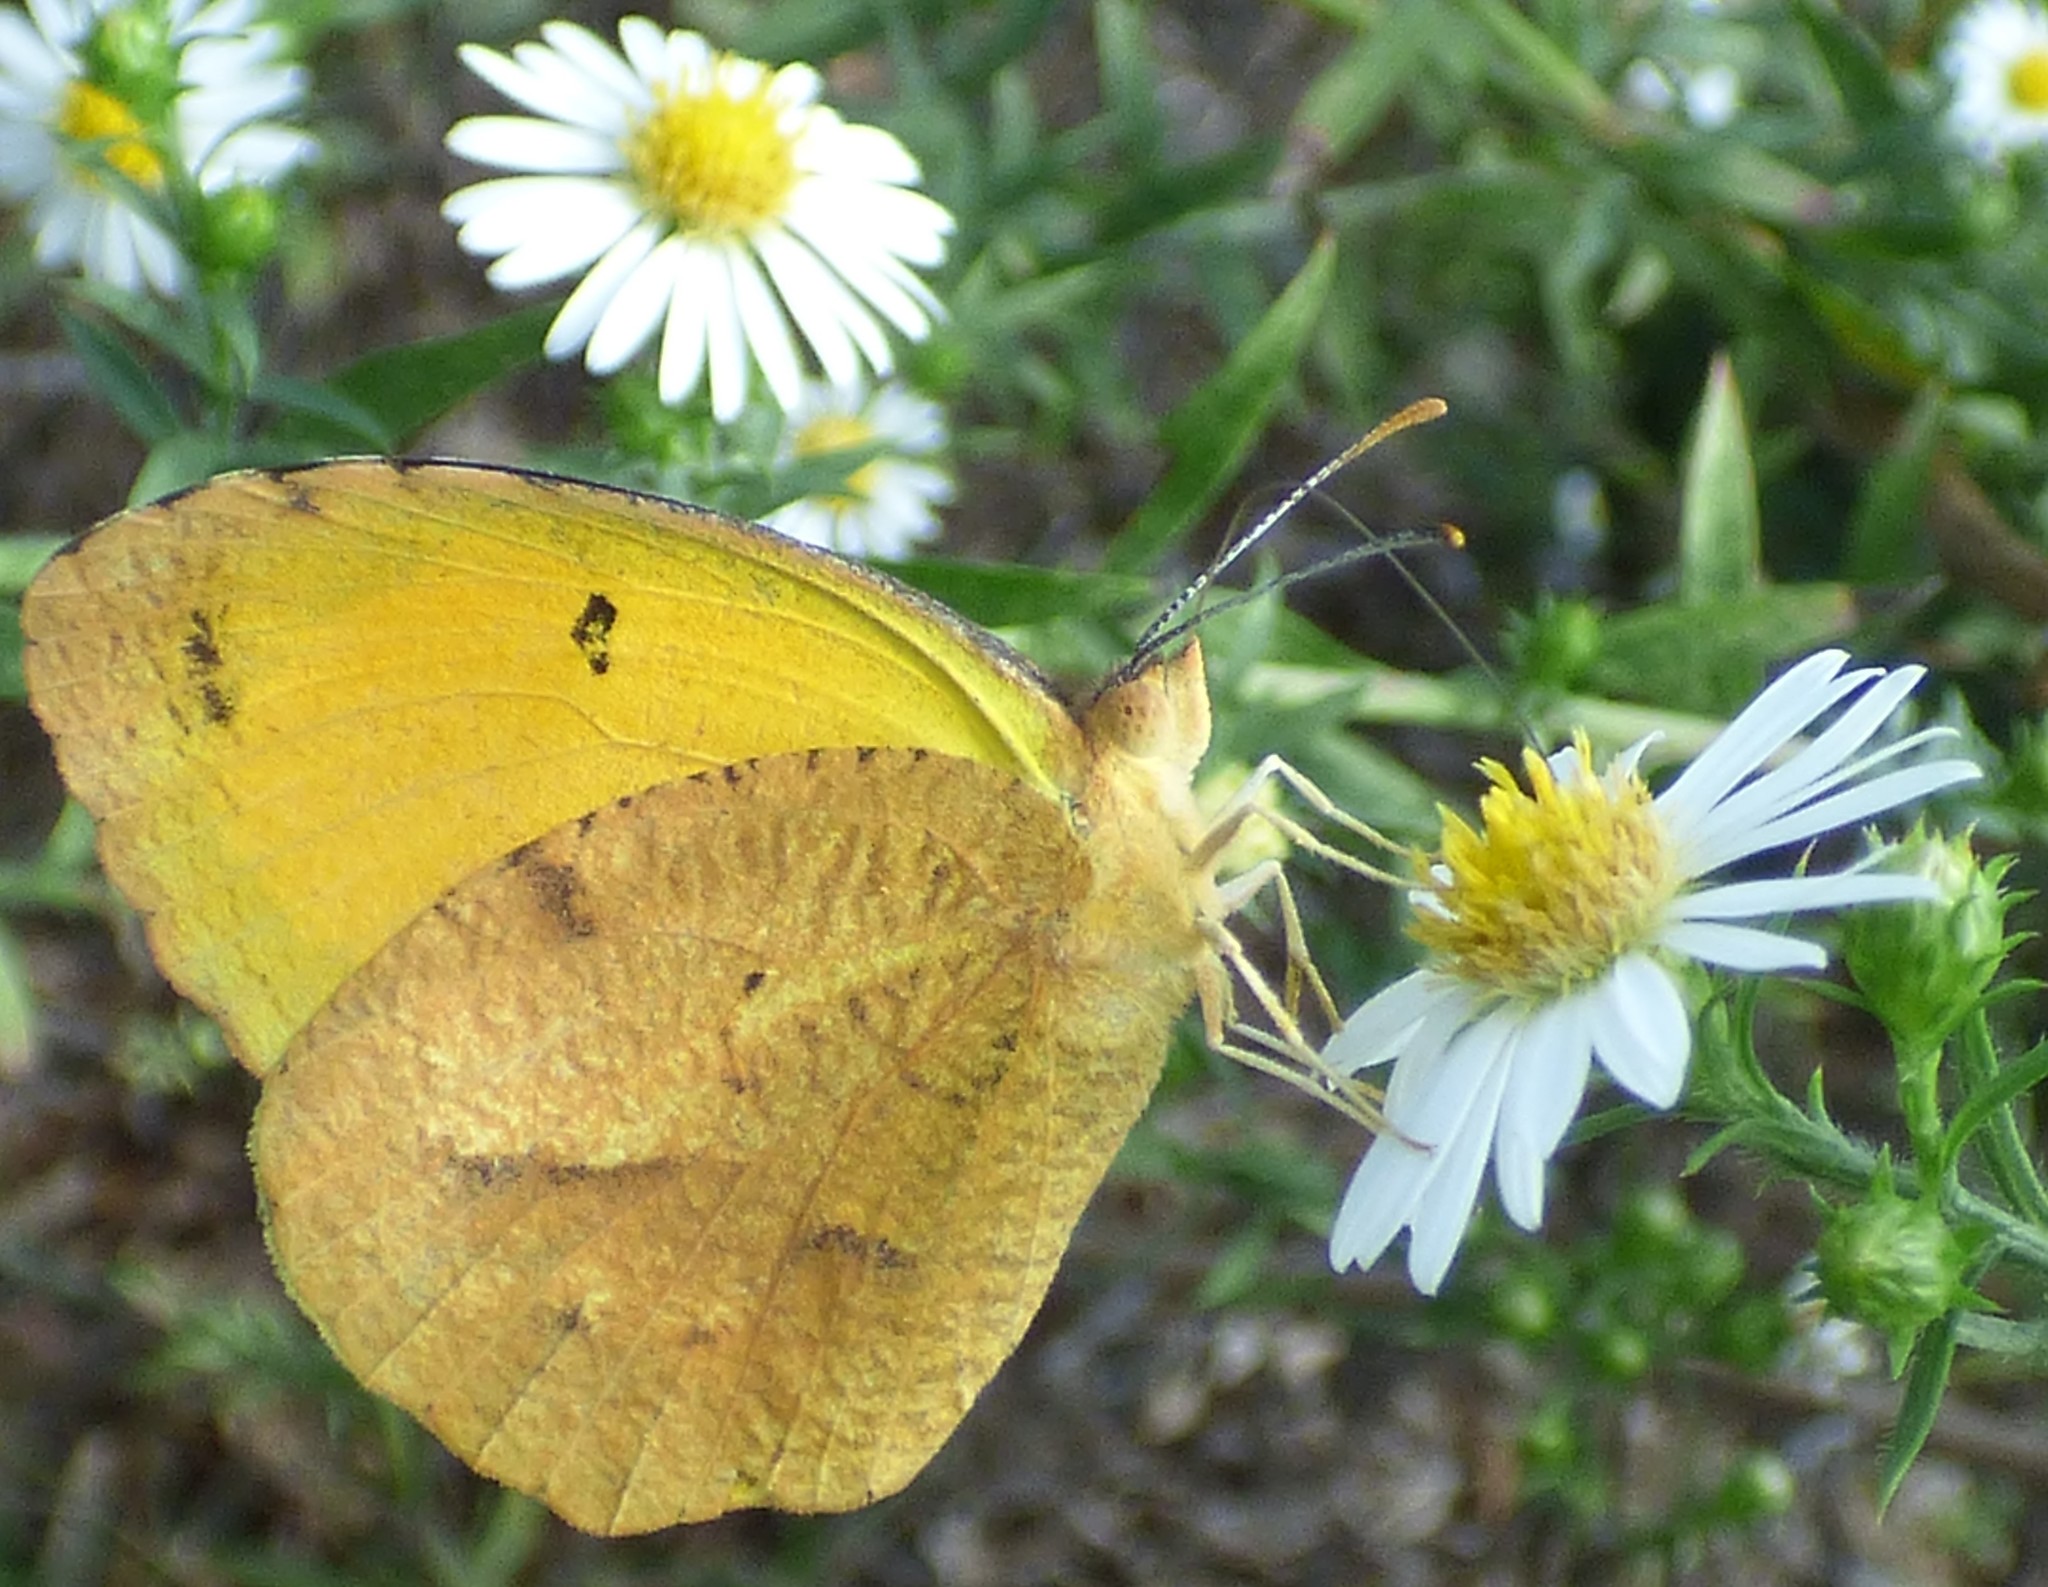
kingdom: Animalia
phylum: Arthropoda
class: Insecta
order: Lepidoptera
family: Pieridae
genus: Abaeis
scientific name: Abaeis nicippe
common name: Sleepy orange
